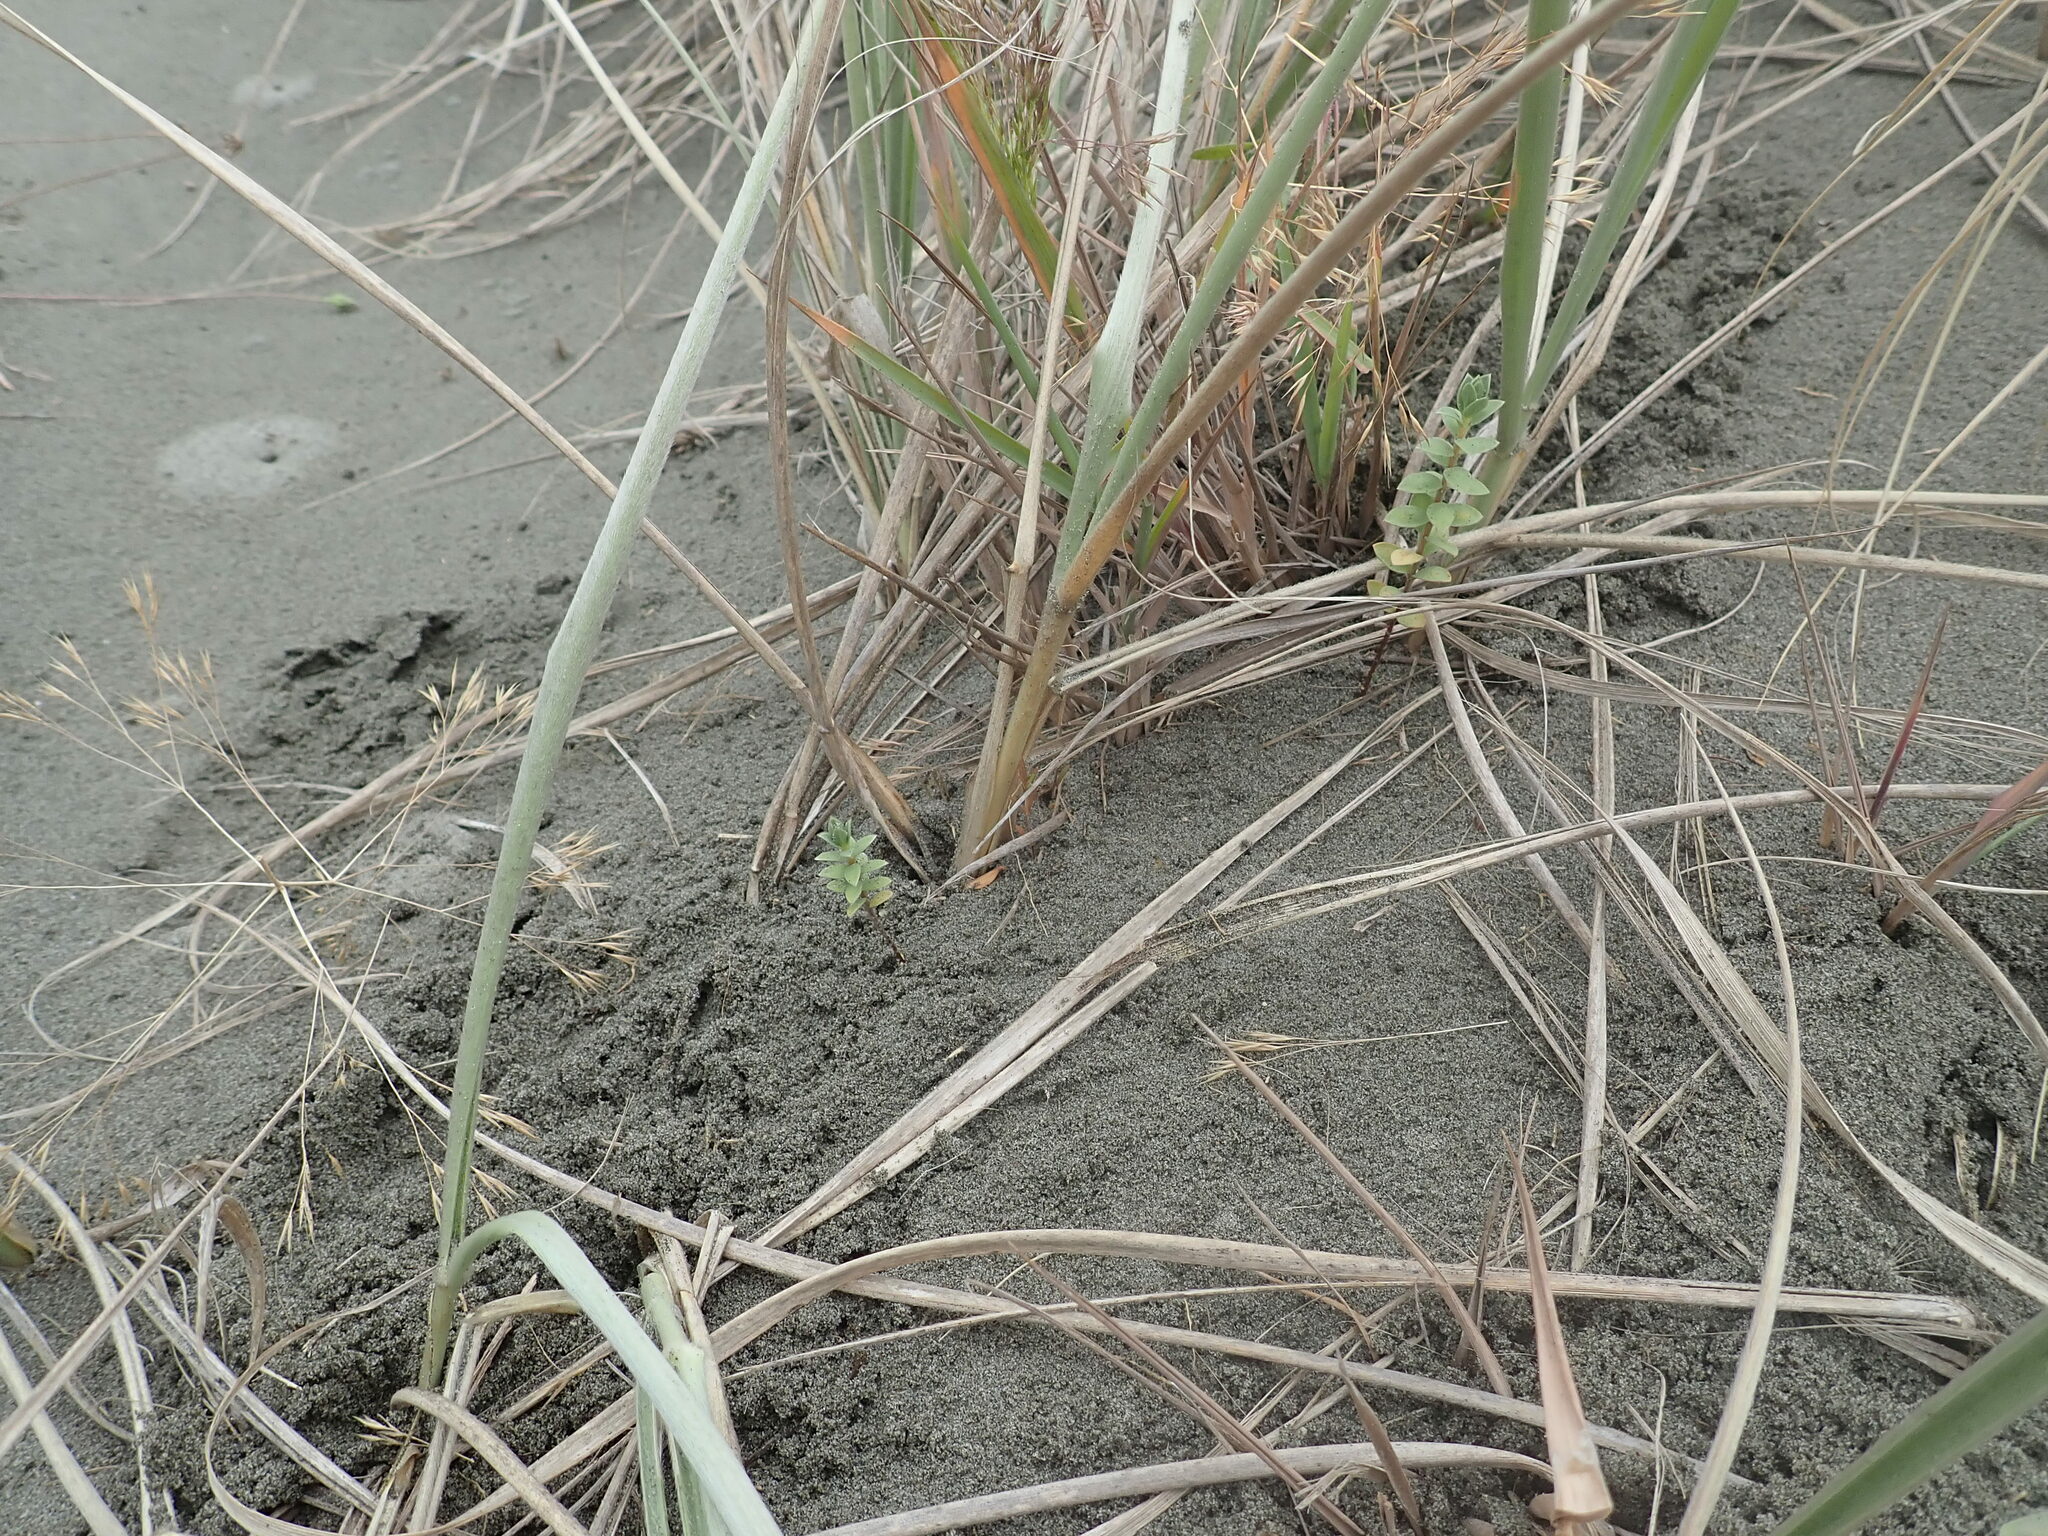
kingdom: Plantae
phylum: Tracheophyta
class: Magnoliopsida
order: Malvales
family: Thymelaeaceae
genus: Pimelea
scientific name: Pimelea villosa
